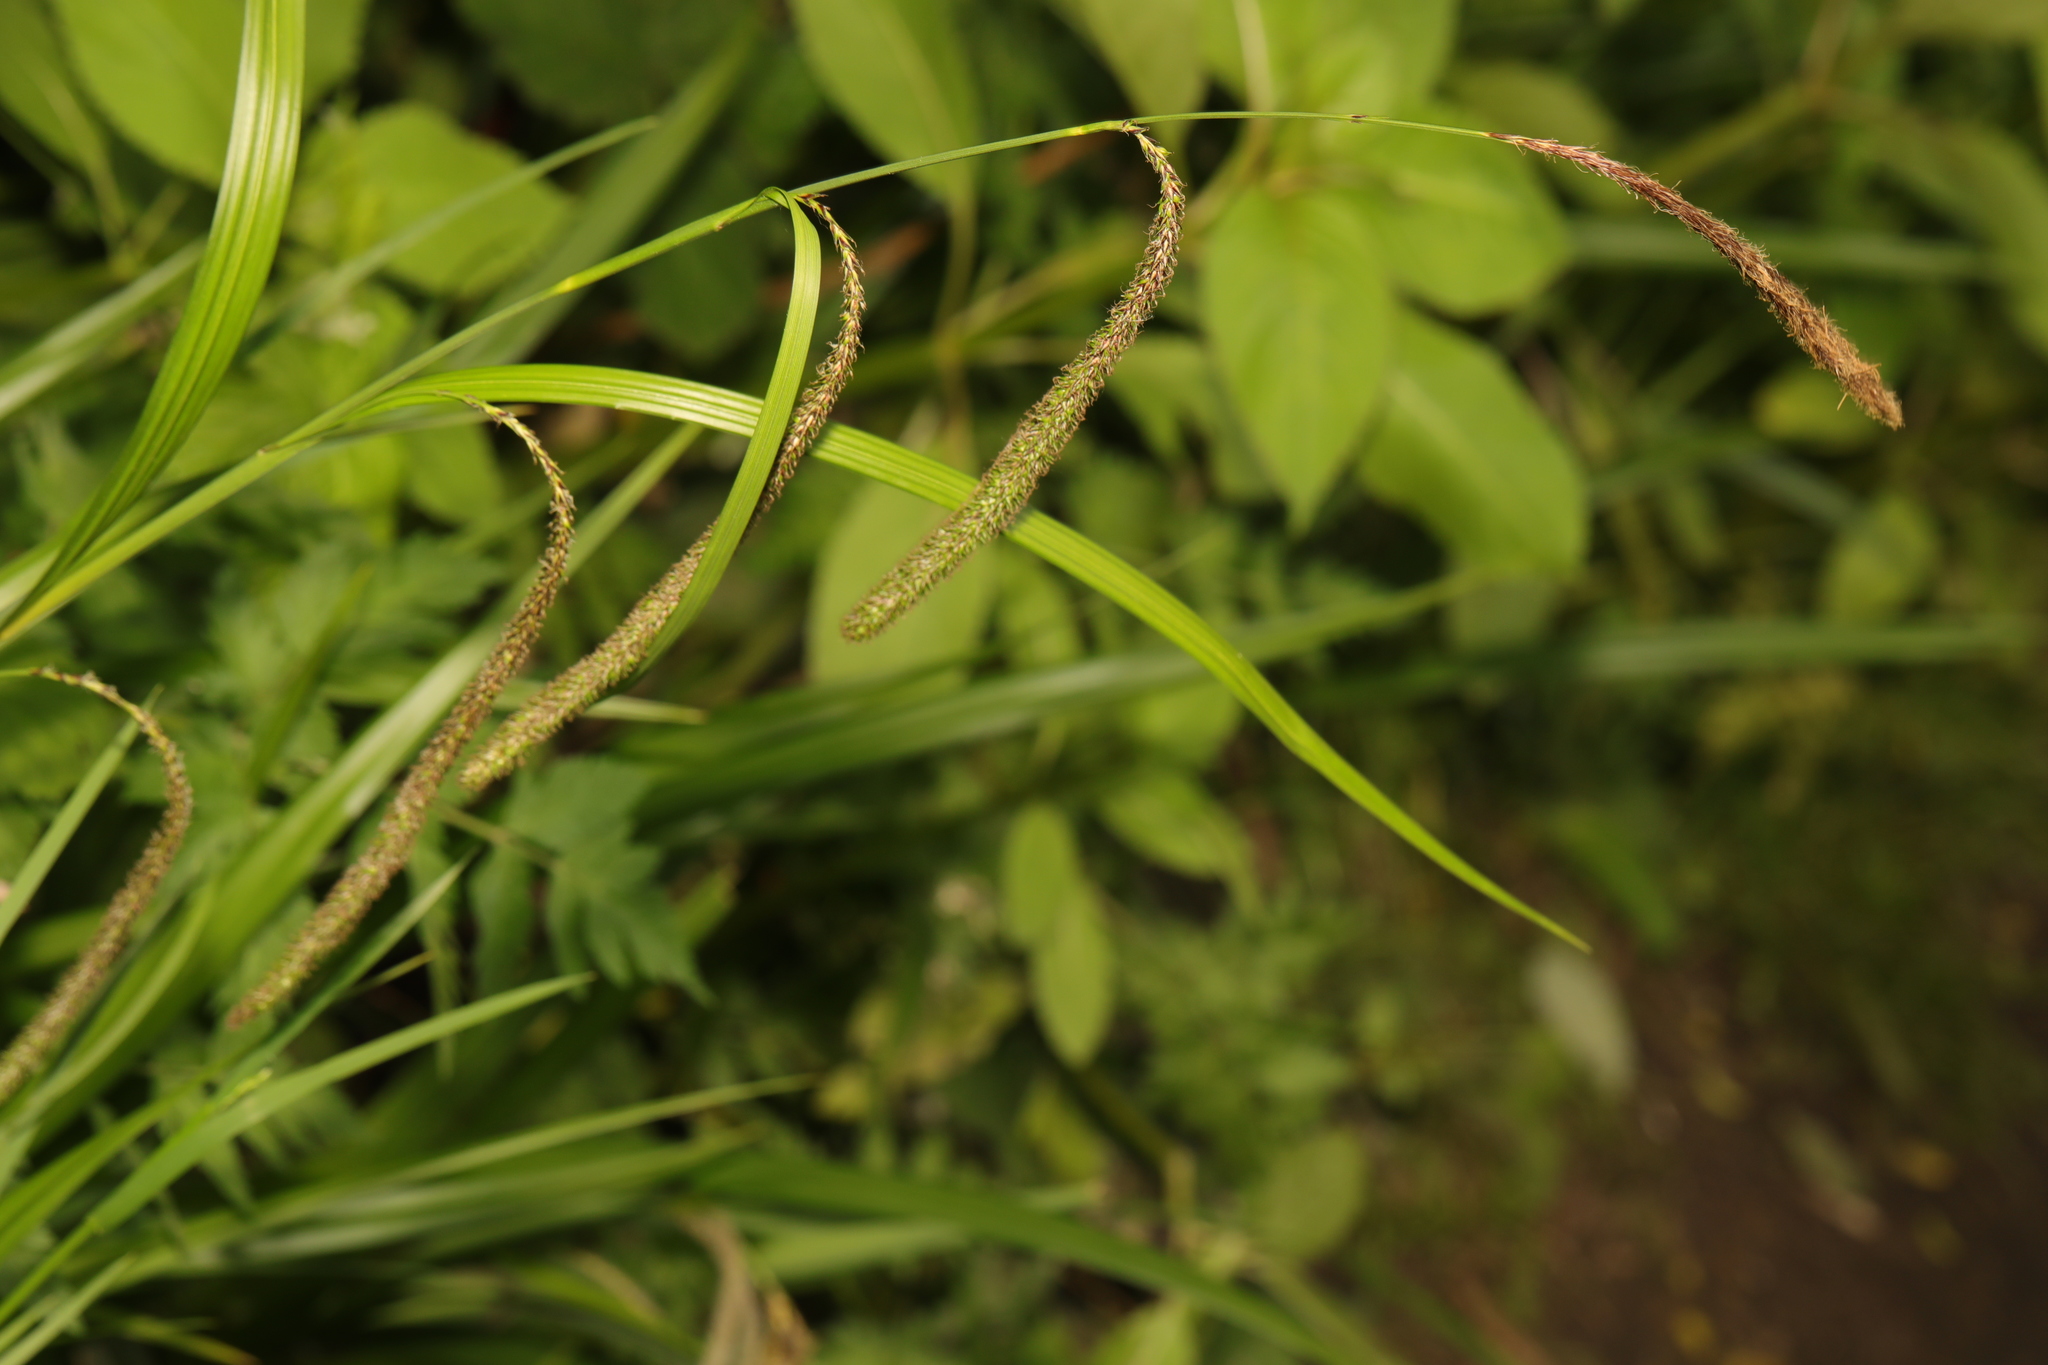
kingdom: Plantae
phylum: Tracheophyta
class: Liliopsida
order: Poales
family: Cyperaceae
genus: Carex
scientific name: Carex pendula
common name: Pendulous sedge
